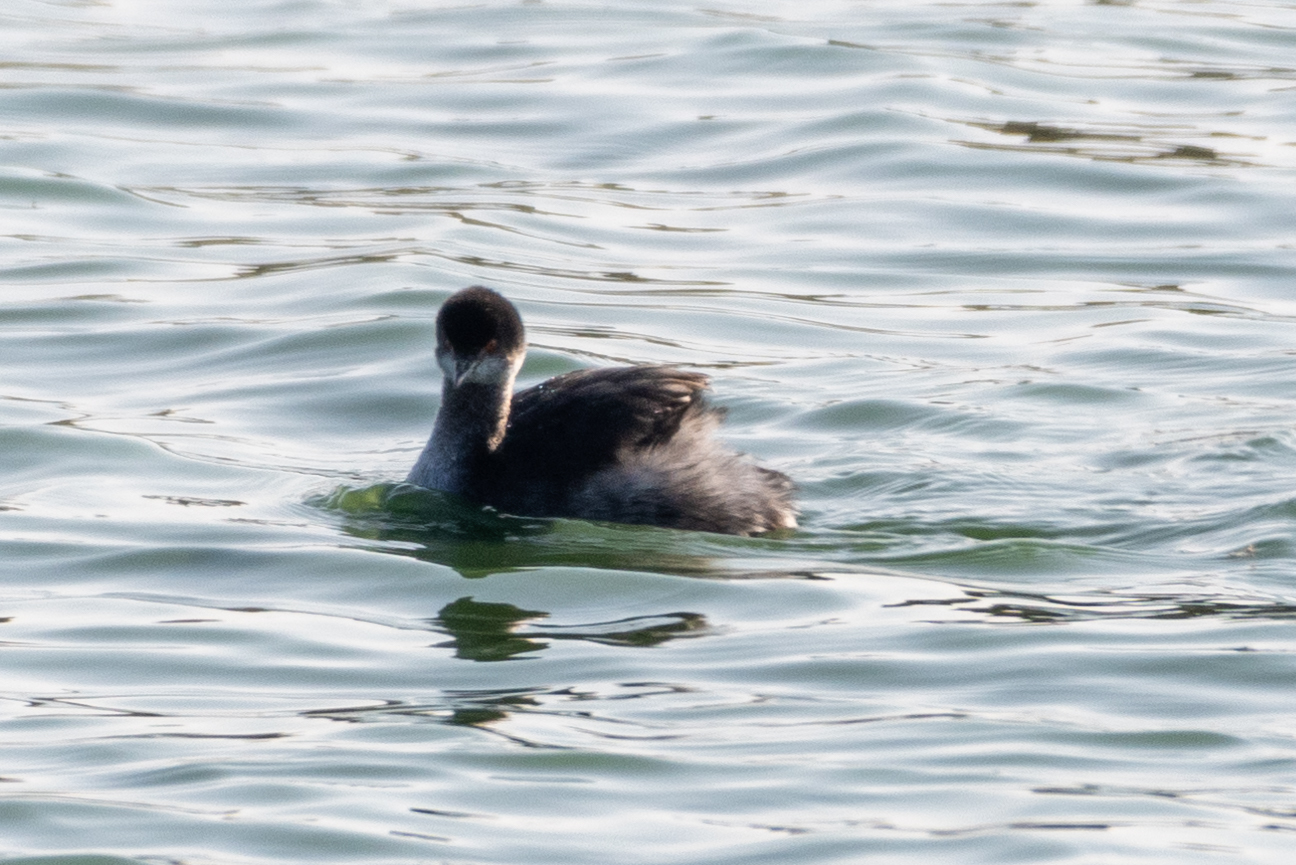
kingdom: Animalia
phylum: Chordata
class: Aves
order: Podicipediformes
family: Podicipedidae
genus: Podiceps
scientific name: Podiceps nigricollis
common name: Black-necked grebe
